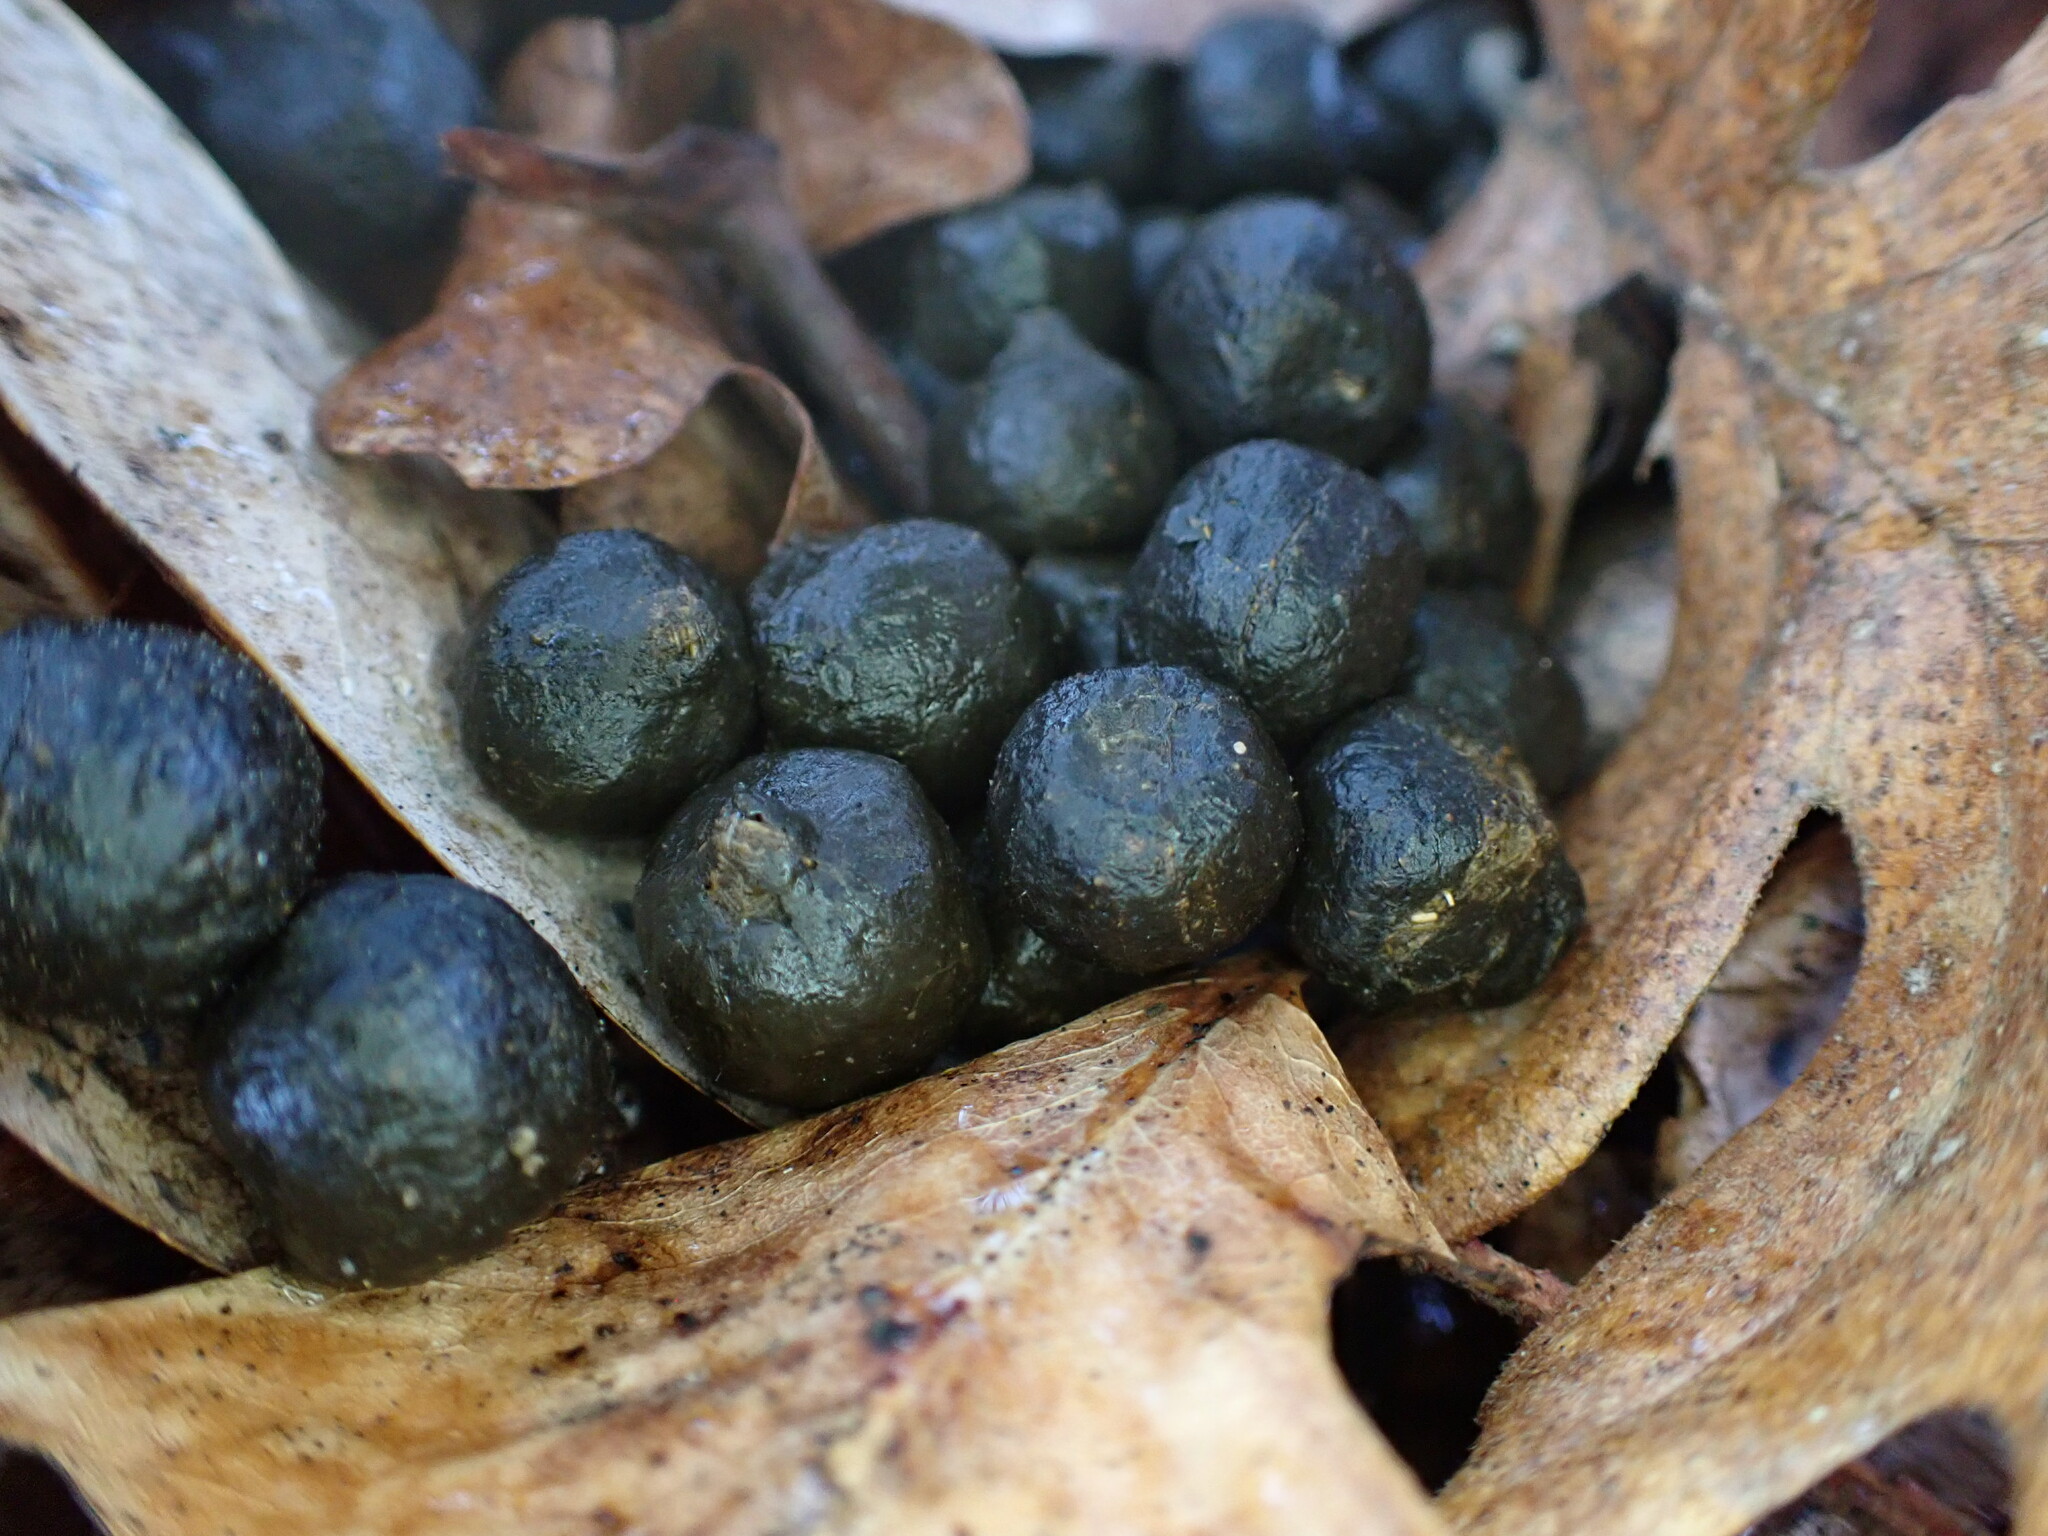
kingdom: Animalia
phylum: Chordata
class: Mammalia
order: Artiodactyla
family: Cervidae
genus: Odocoileus
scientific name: Odocoileus hemionus
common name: Mule deer
